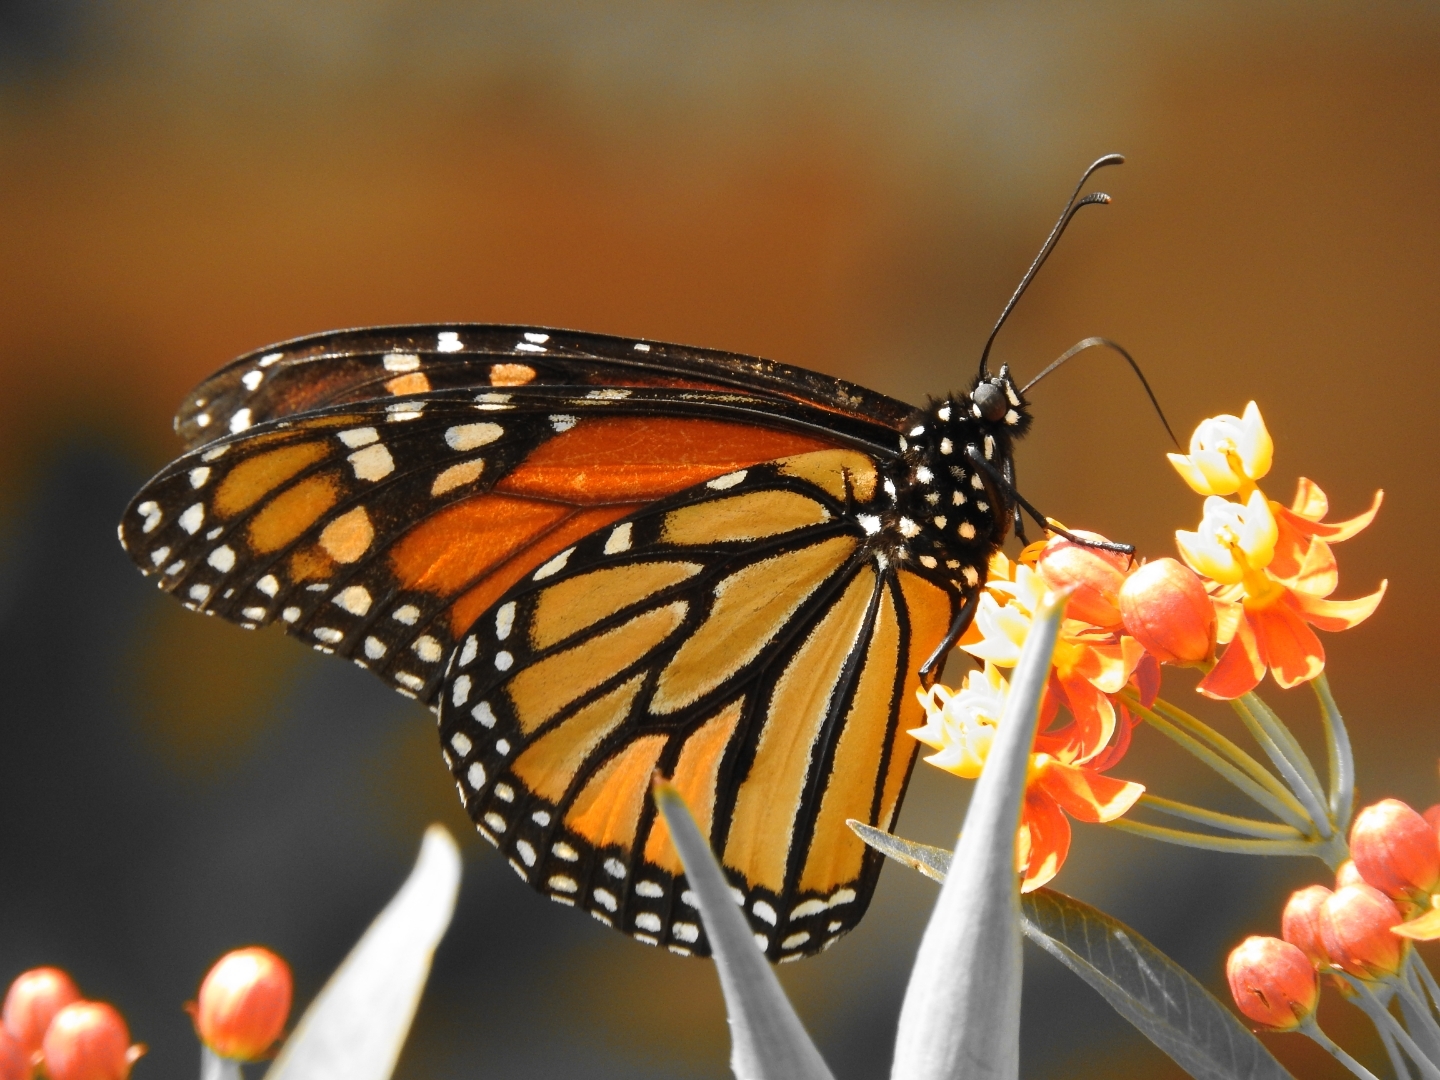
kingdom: Animalia
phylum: Arthropoda
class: Insecta
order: Lepidoptera
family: Nymphalidae
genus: Danaus
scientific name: Danaus plexippus
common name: Monarch
